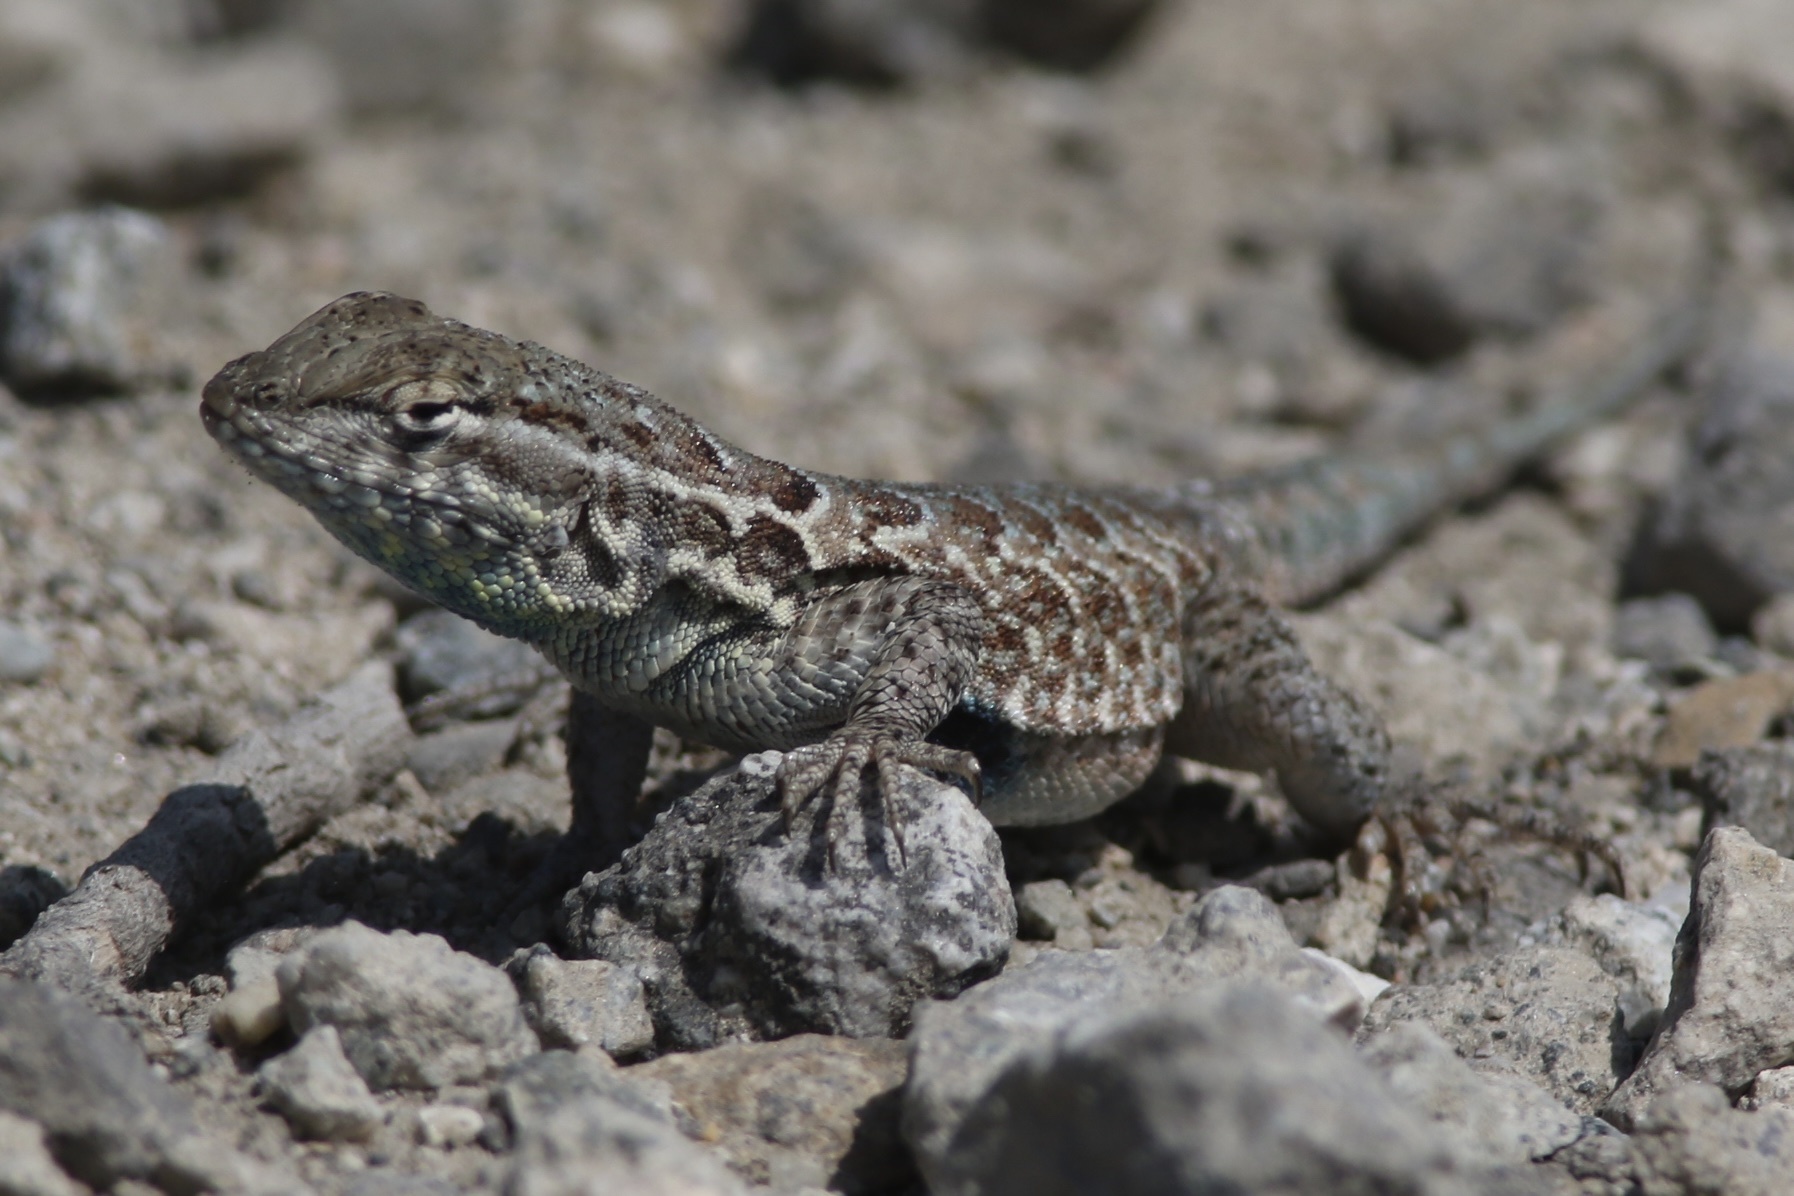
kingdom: Animalia
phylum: Chordata
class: Squamata
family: Phrynosomatidae
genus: Uta
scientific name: Uta stansburiana
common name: Side-blotched lizard
